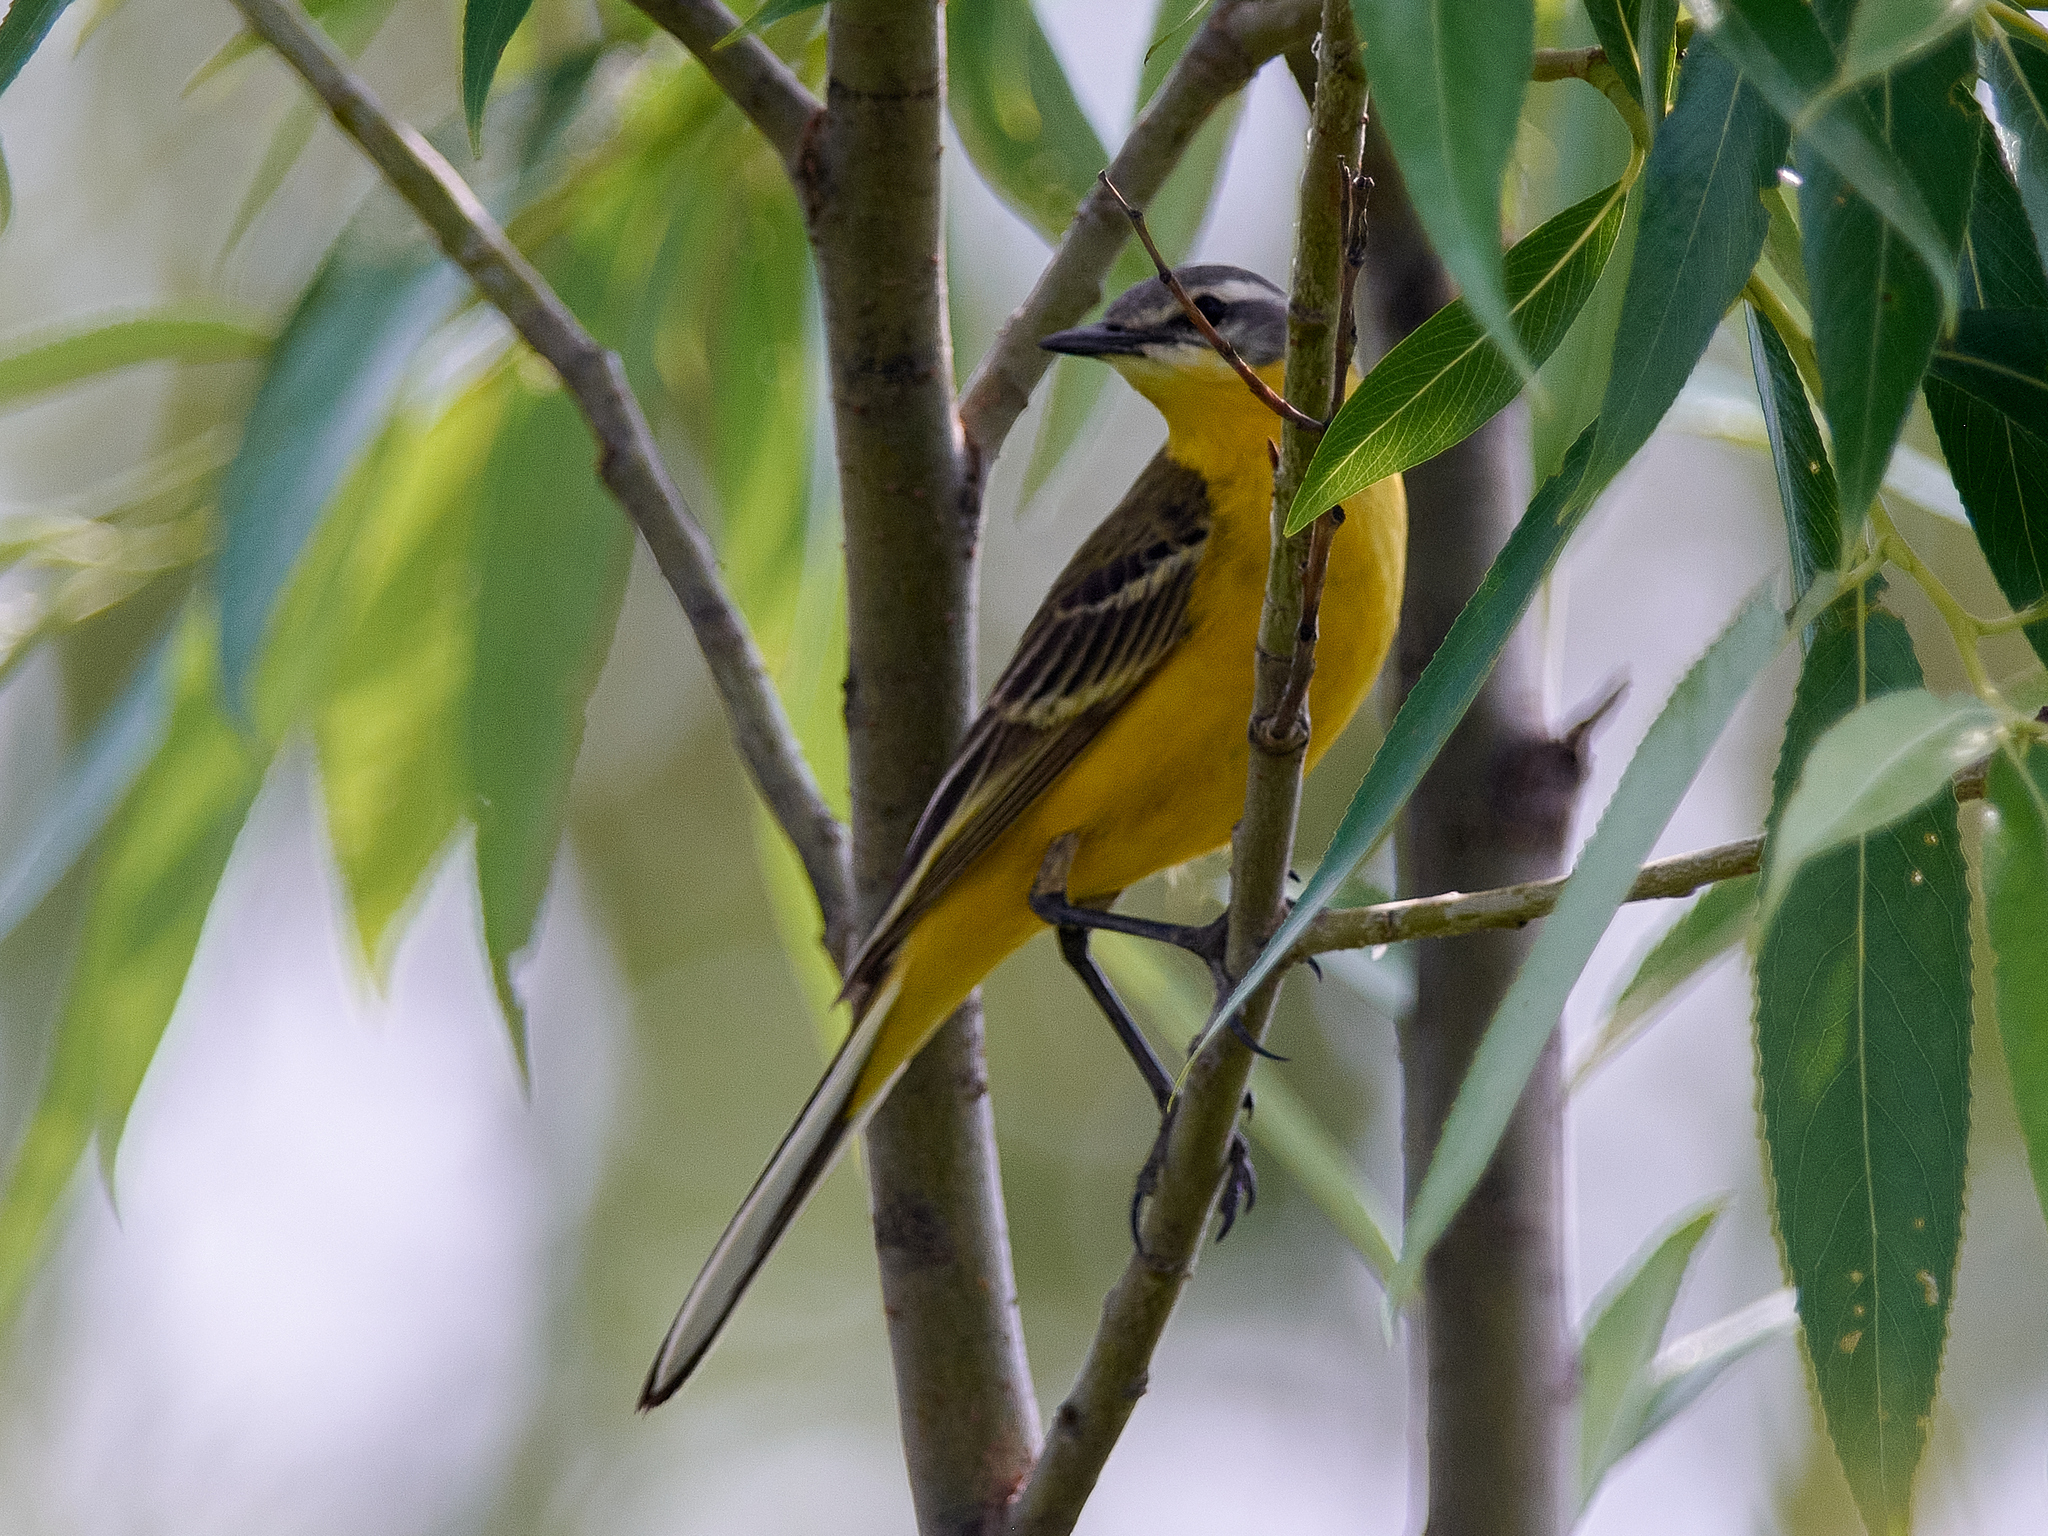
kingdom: Animalia
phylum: Chordata
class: Aves
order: Passeriformes
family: Motacillidae
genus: Motacilla
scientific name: Motacilla flava
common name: Western yellow wagtail
